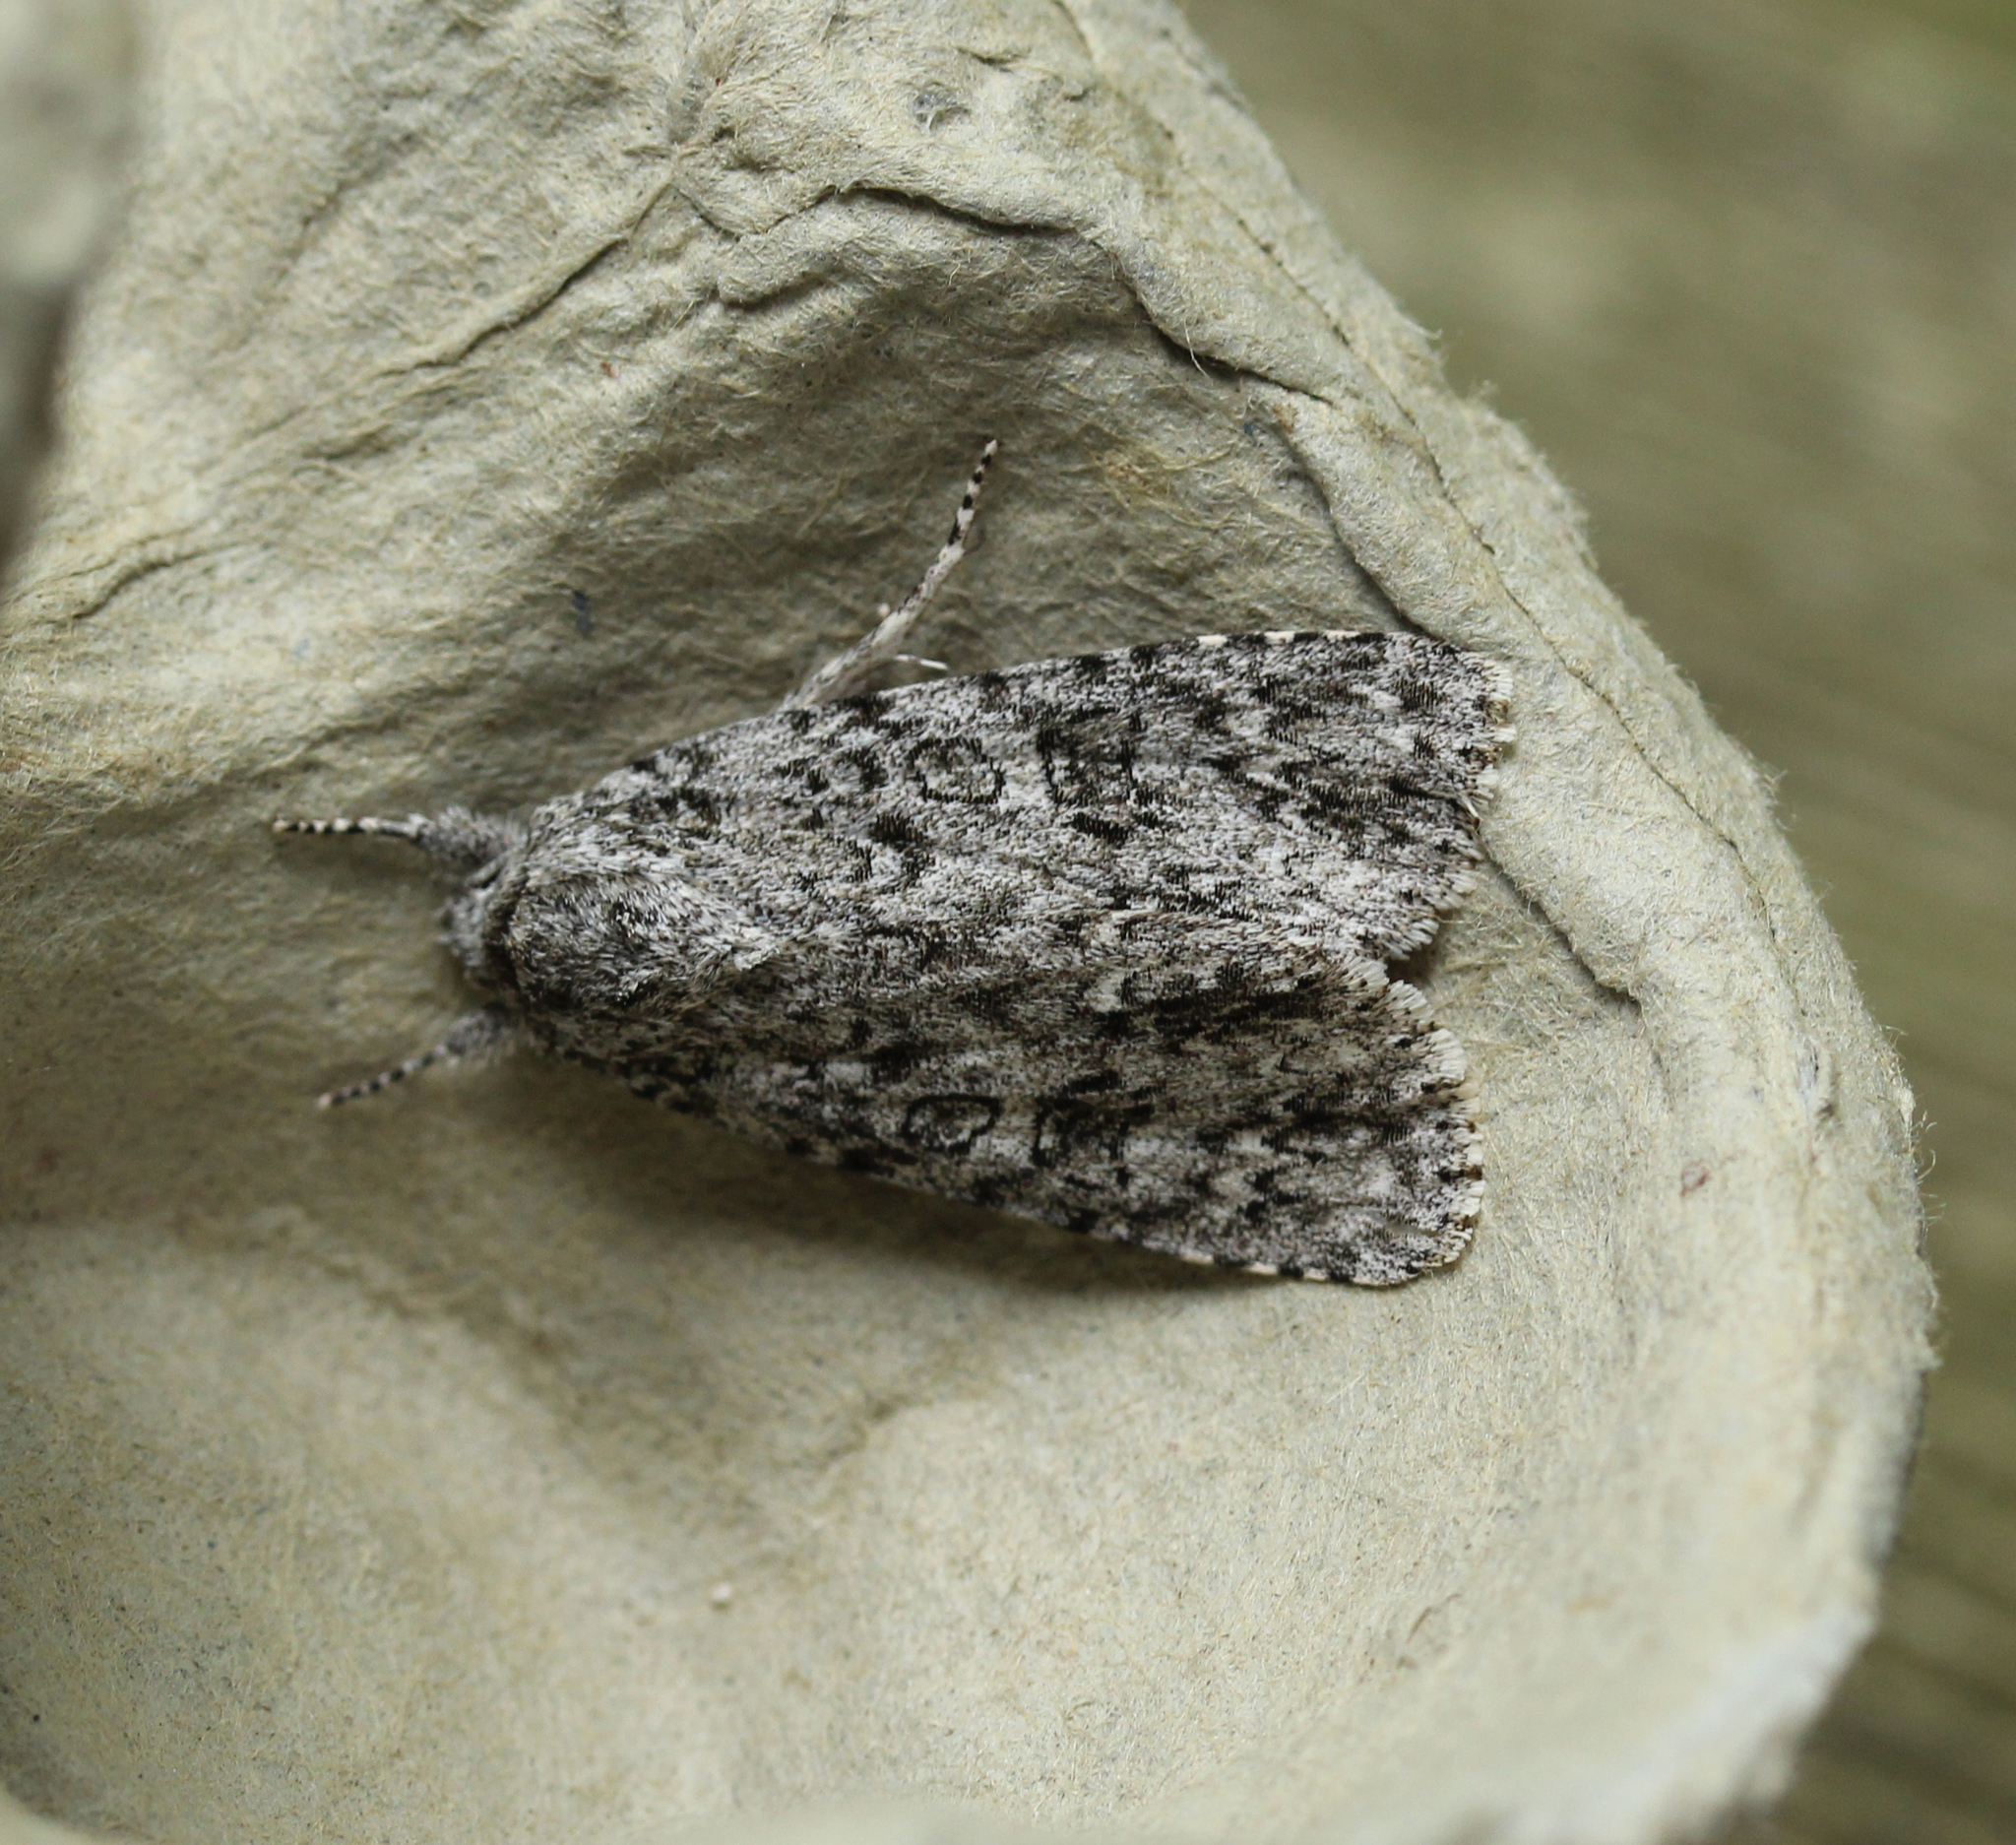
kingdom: Animalia
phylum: Arthropoda
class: Insecta
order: Lepidoptera
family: Noctuidae
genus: Acronicta
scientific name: Acronicta impleta
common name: Powdered dagger
